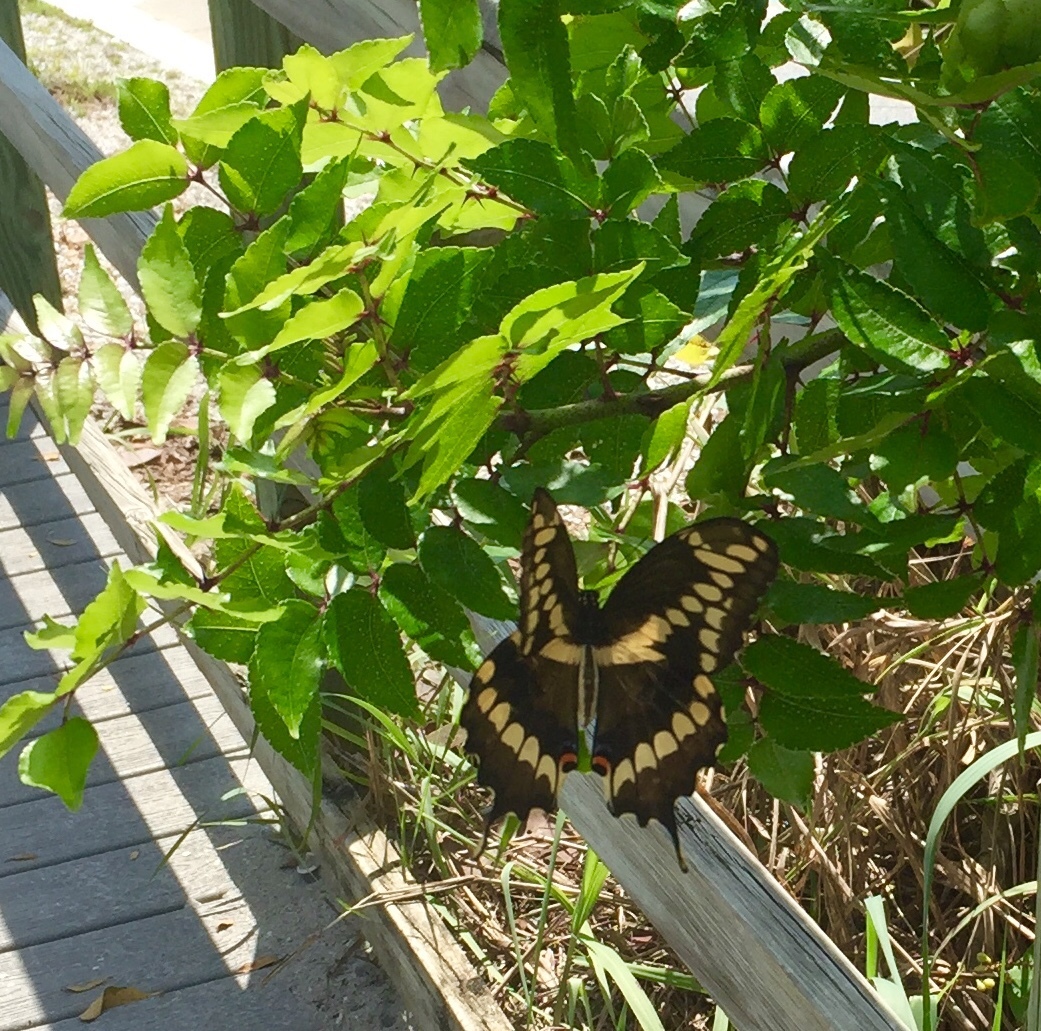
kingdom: Animalia
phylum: Arthropoda
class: Insecta
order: Lepidoptera
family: Papilionidae
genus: Papilio
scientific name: Papilio cresphontes
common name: Giant swallowtail
